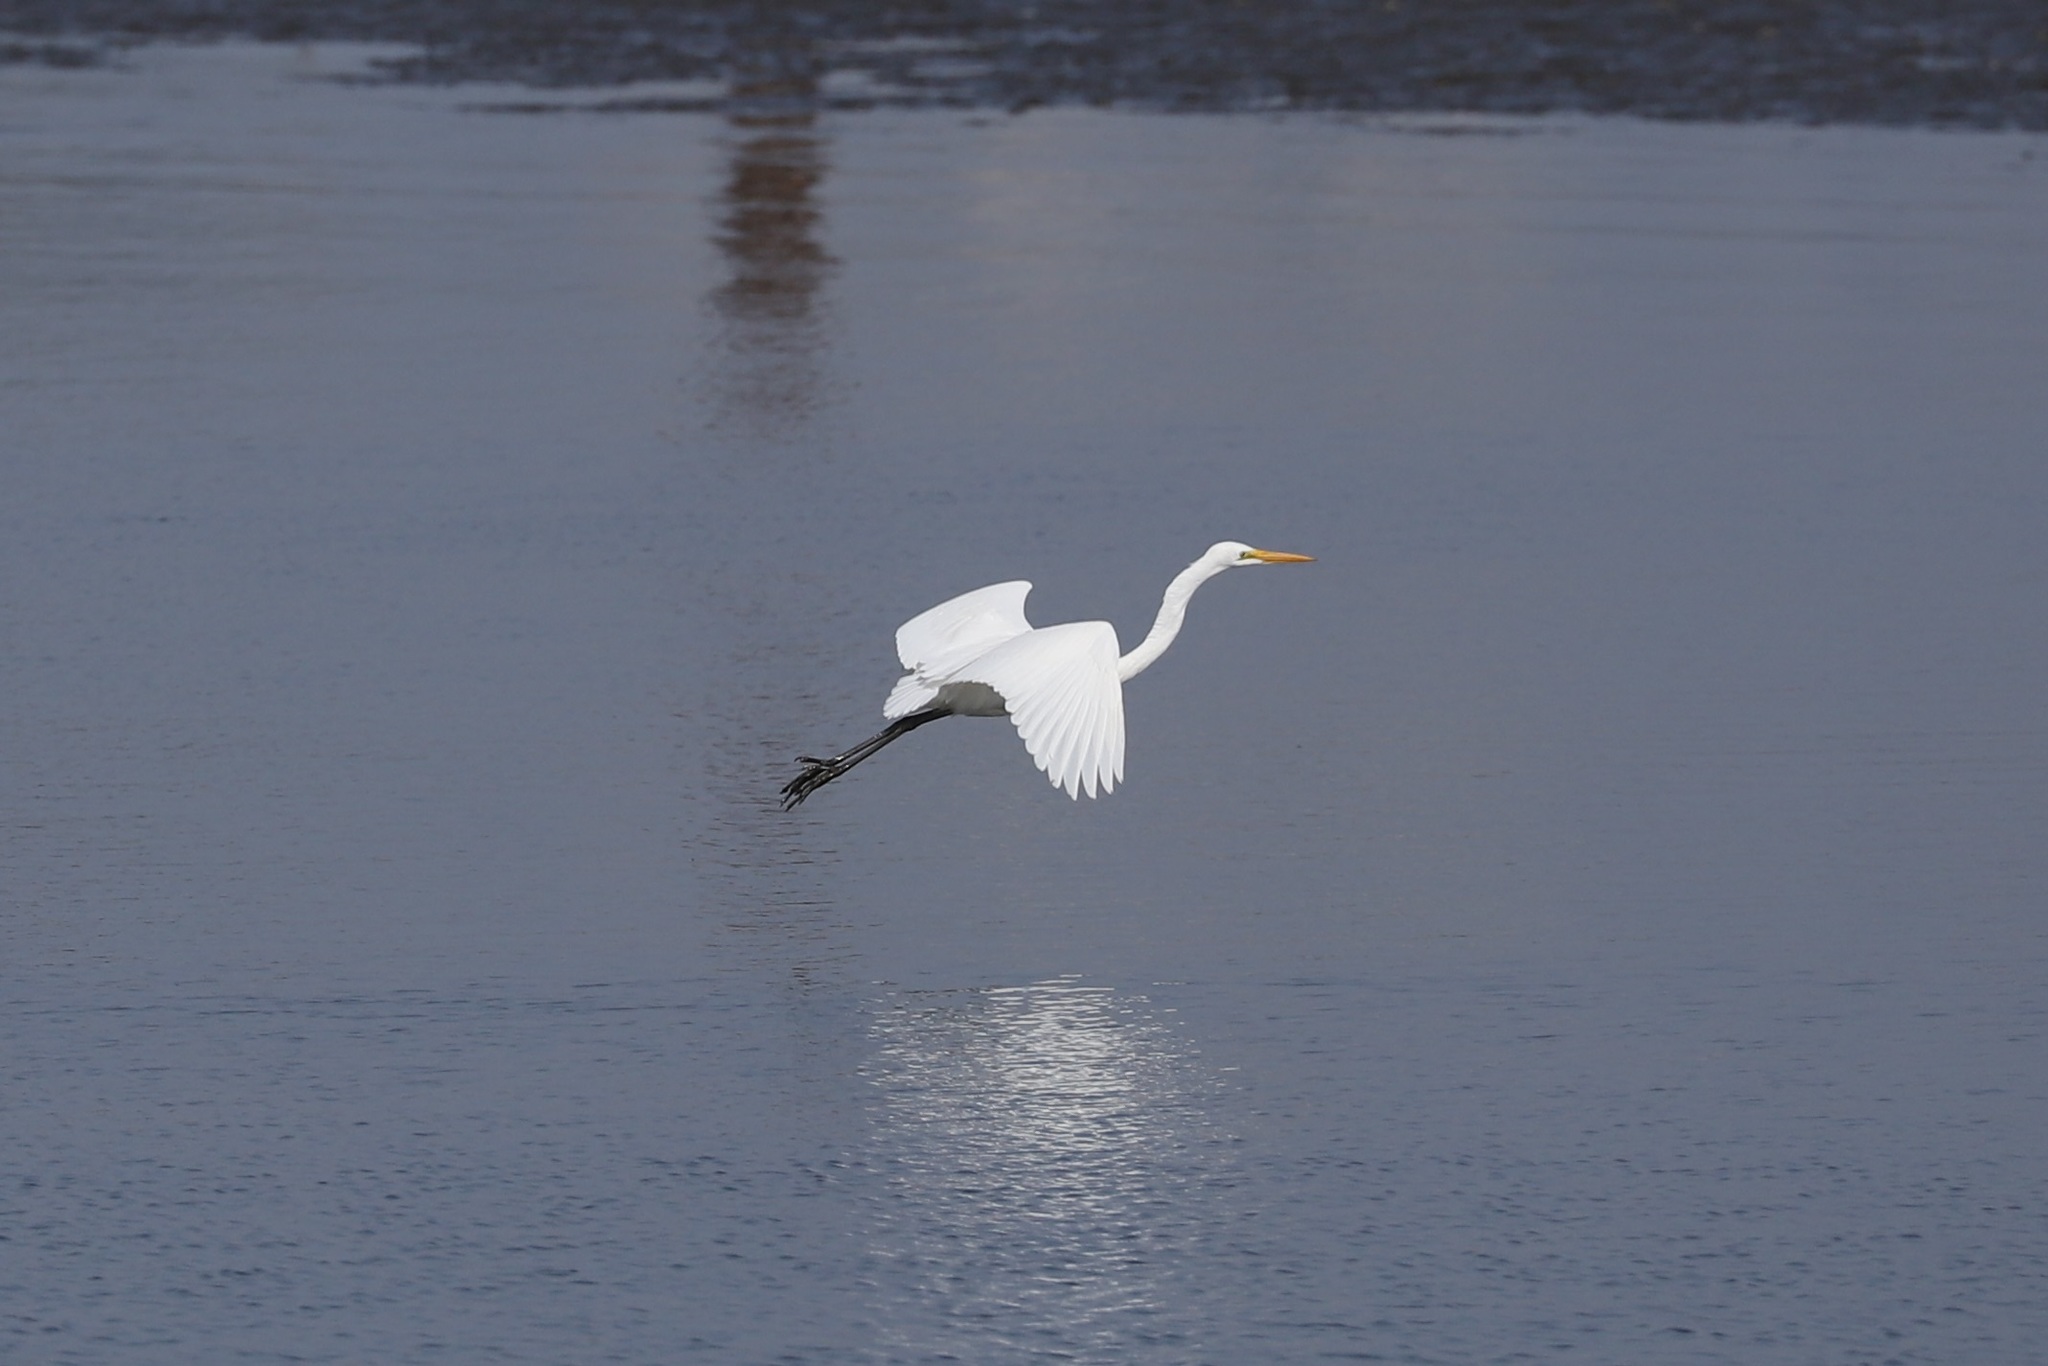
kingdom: Animalia
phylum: Chordata
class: Aves
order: Pelecaniformes
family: Ardeidae
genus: Ardea
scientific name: Ardea alba
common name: Great egret
